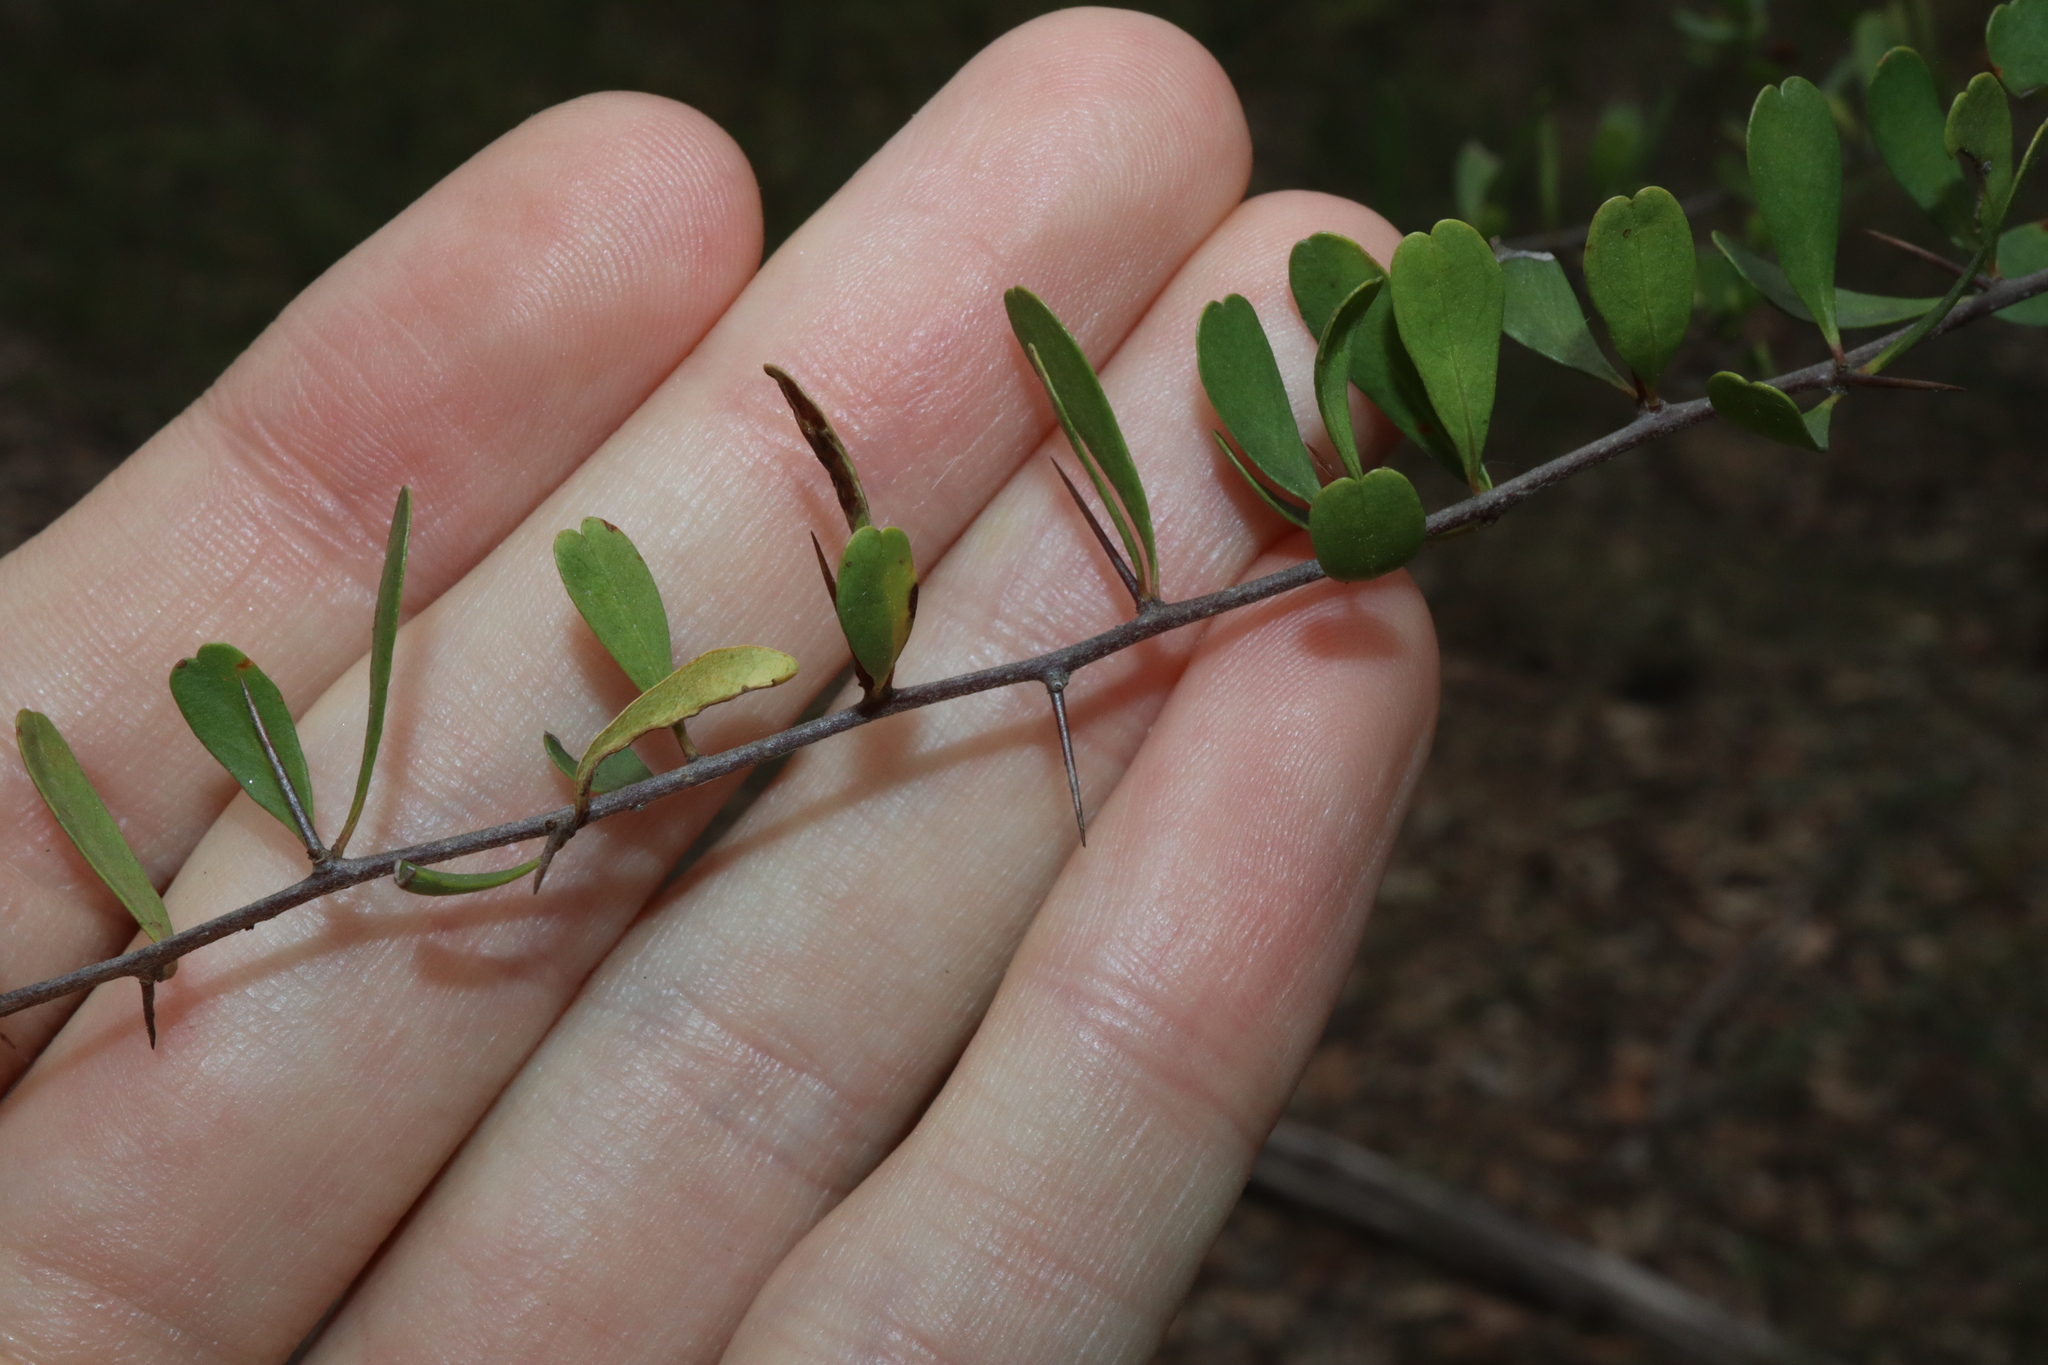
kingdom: Plantae
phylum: Tracheophyta
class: Magnoliopsida
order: Apiales
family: Pittosporaceae
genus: Bursaria
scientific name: Bursaria spinosa
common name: Australian blackthorn
